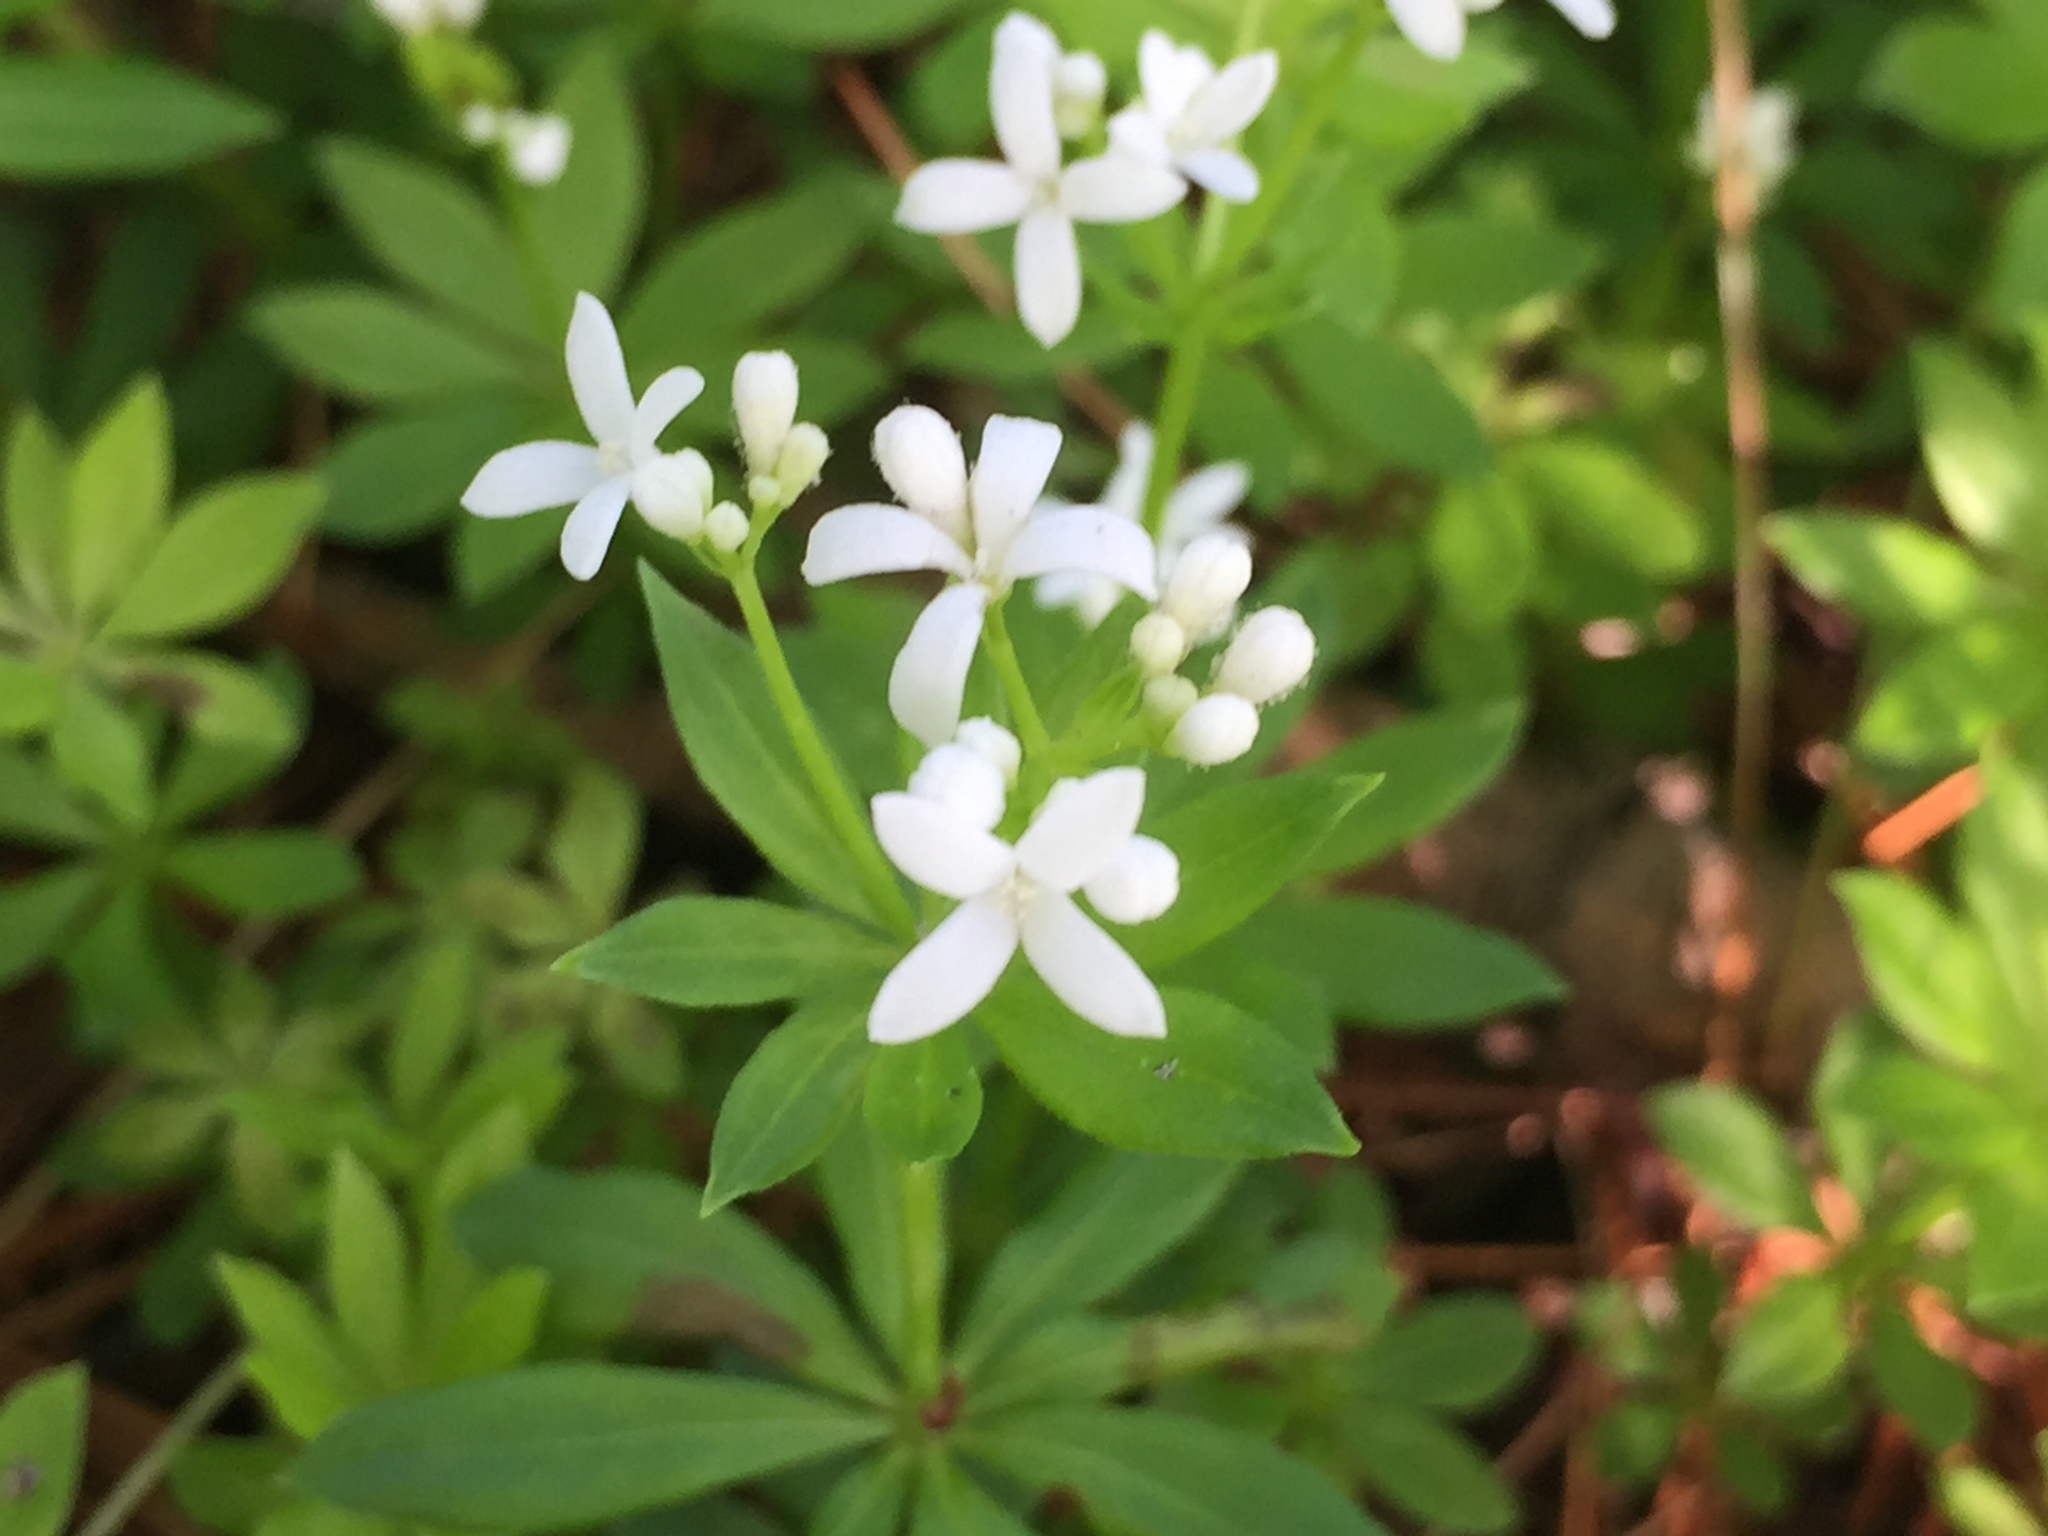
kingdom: Plantae
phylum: Tracheophyta
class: Magnoliopsida
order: Gentianales
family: Rubiaceae
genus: Galium
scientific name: Galium odoratum
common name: Sweet woodruff
